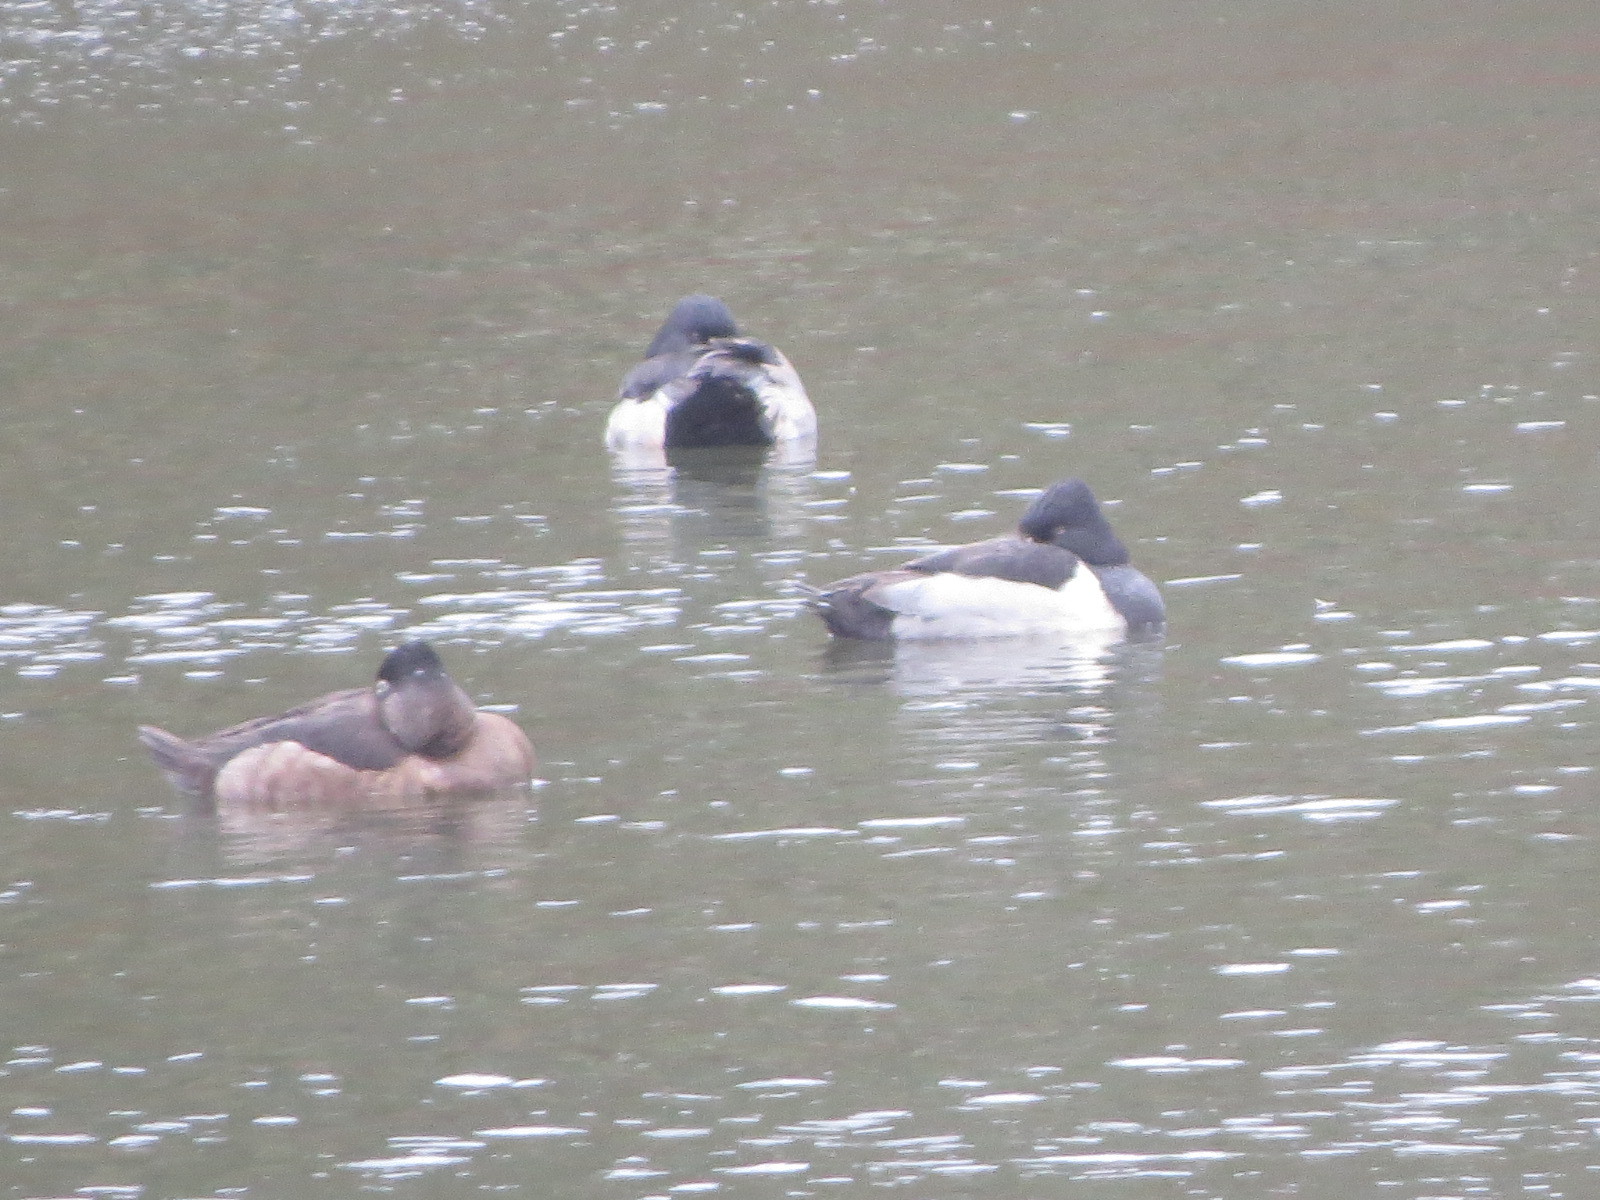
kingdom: Animalia
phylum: Chordata
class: Aves
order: Anseriformes
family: Anatidae
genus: Aythya
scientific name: Aythya collaris
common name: Ring-necked duck
